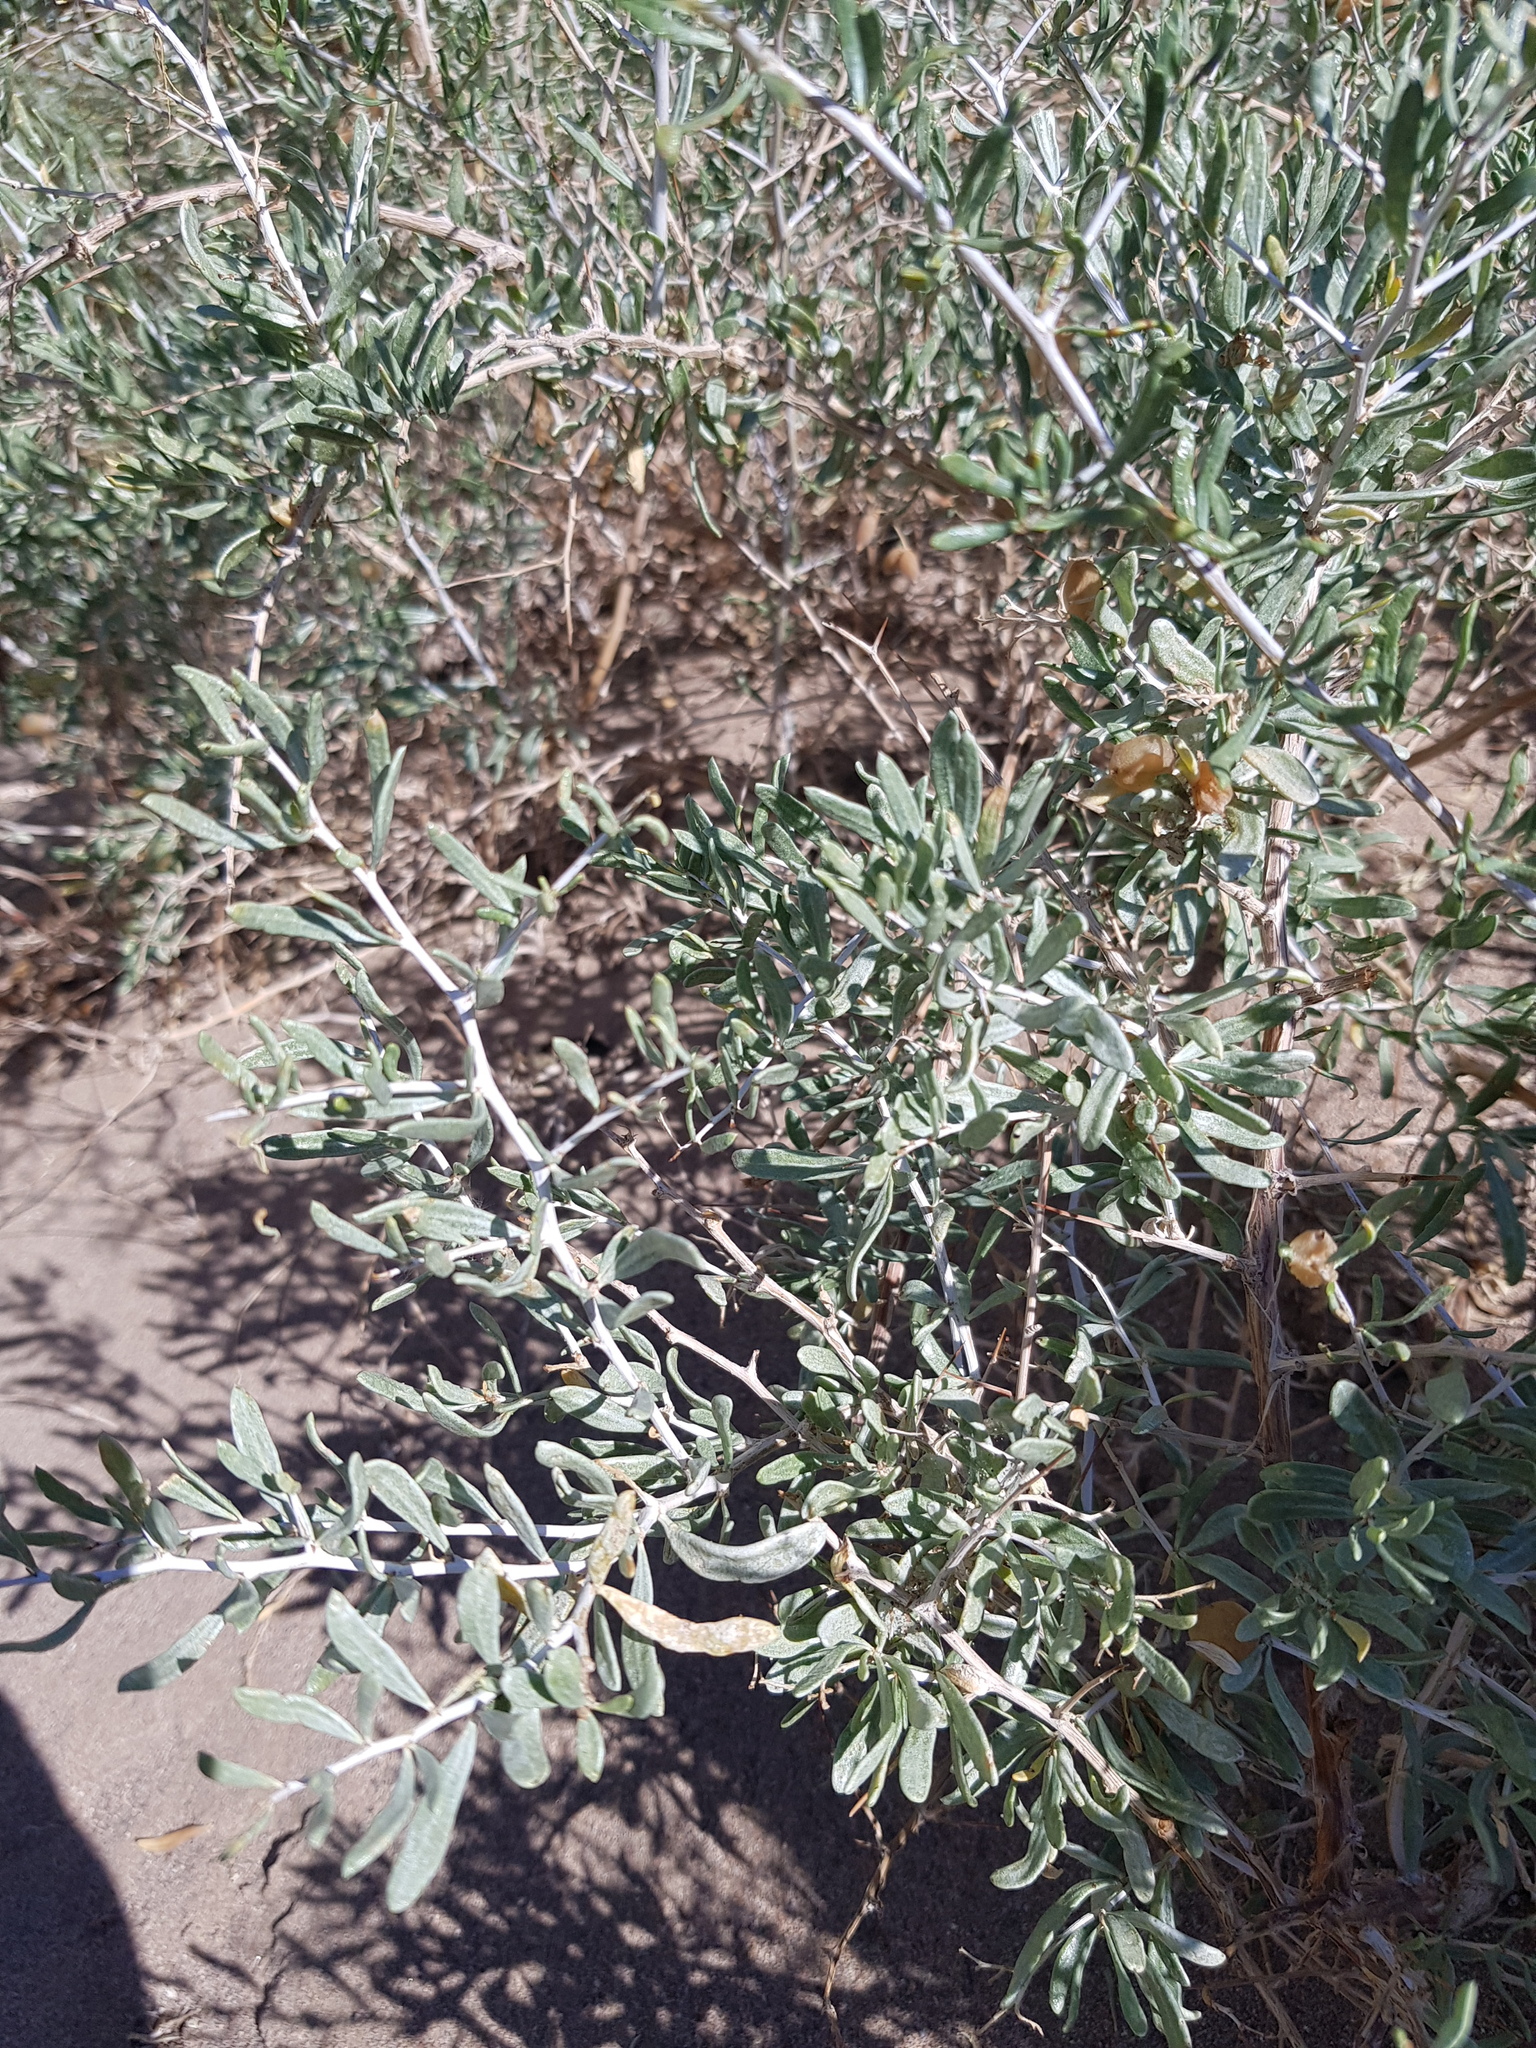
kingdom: Plantae
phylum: Tracheophyta
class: Magnoliopsida
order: Sapindales
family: Nitrariaceae
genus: Nitraria
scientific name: Nitraria sphaerocarpa
